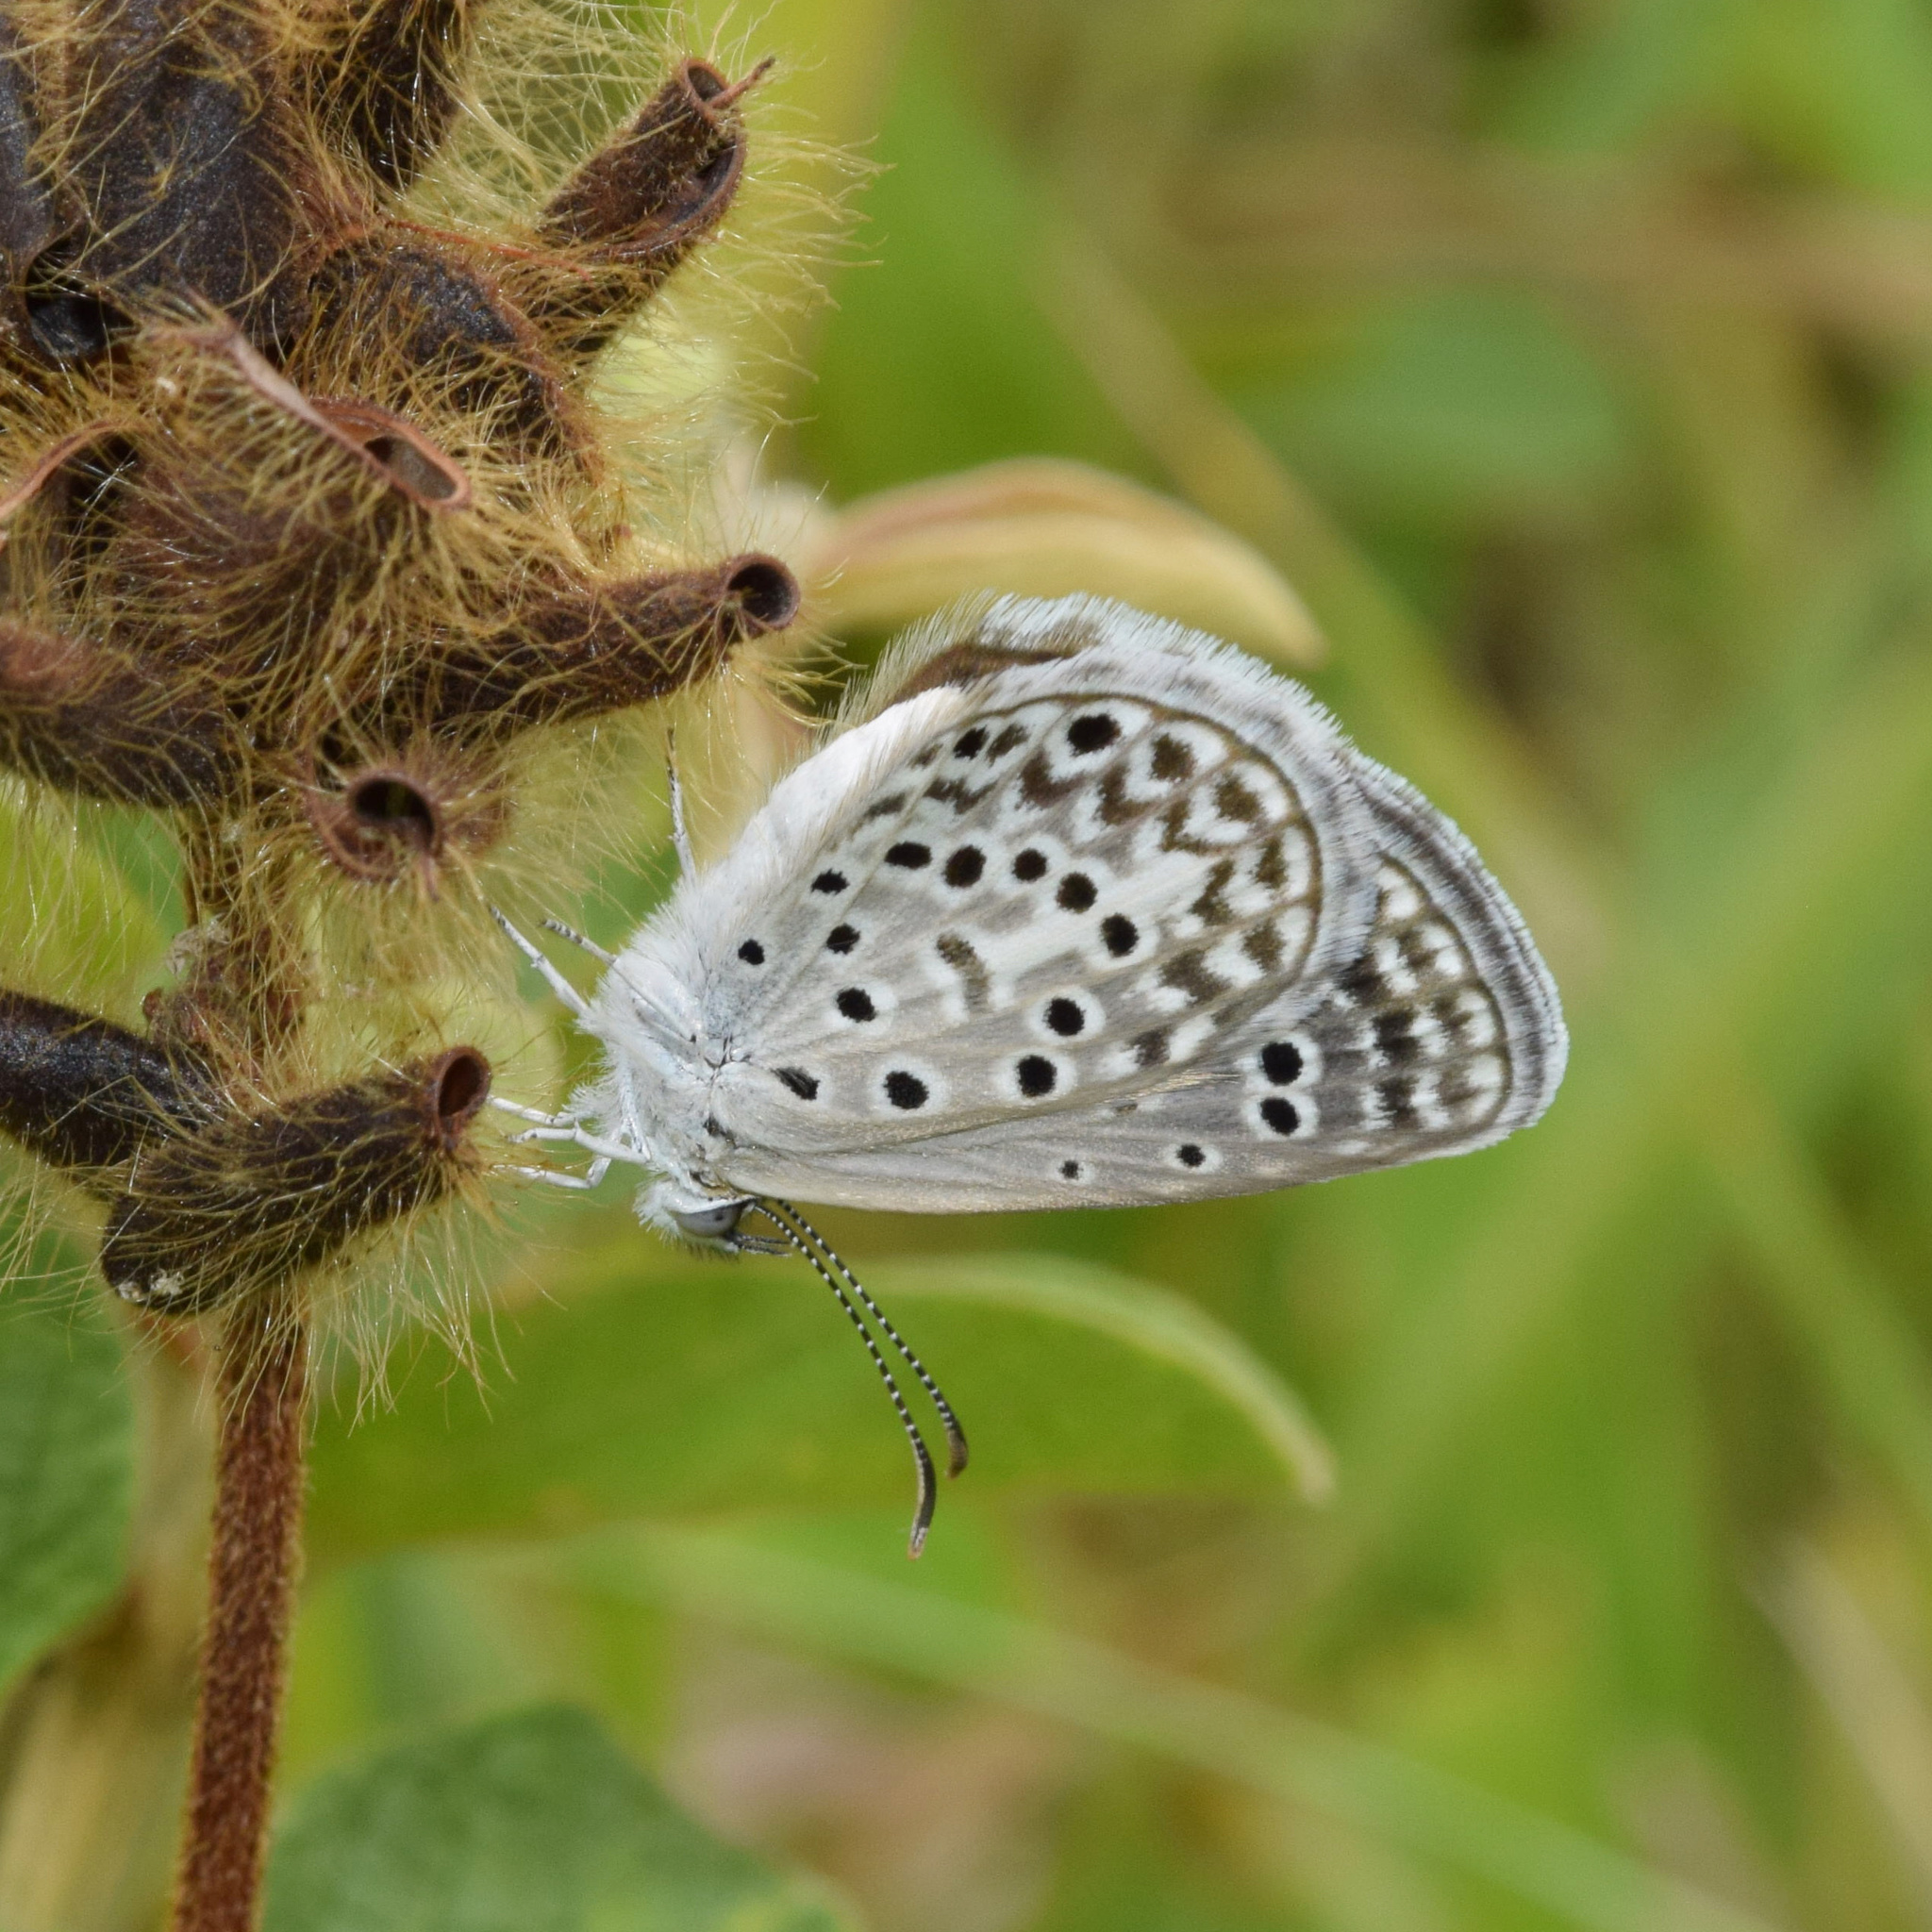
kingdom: Animalia
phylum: Arthropoda
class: Insecta
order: Lepidoptera
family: Lycaenidae
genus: Actizera
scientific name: Actizera lucida
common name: Rayed blue
